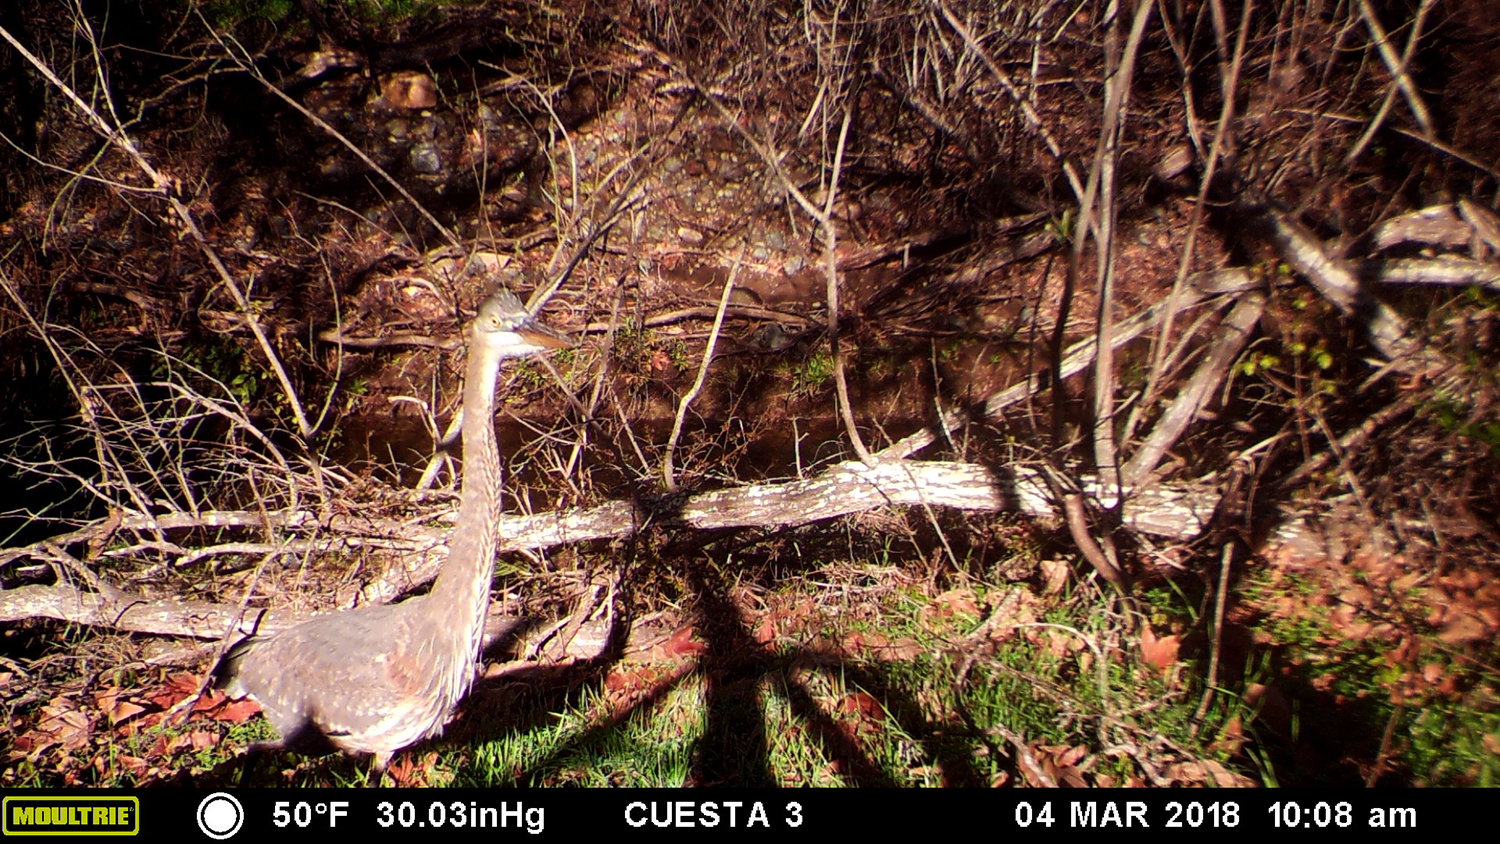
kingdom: Animalia
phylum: Chordata
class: Aves
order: Pelecaniformes
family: Ardeidae
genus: Ardea
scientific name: Ardea herodias
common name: Great blue heron
